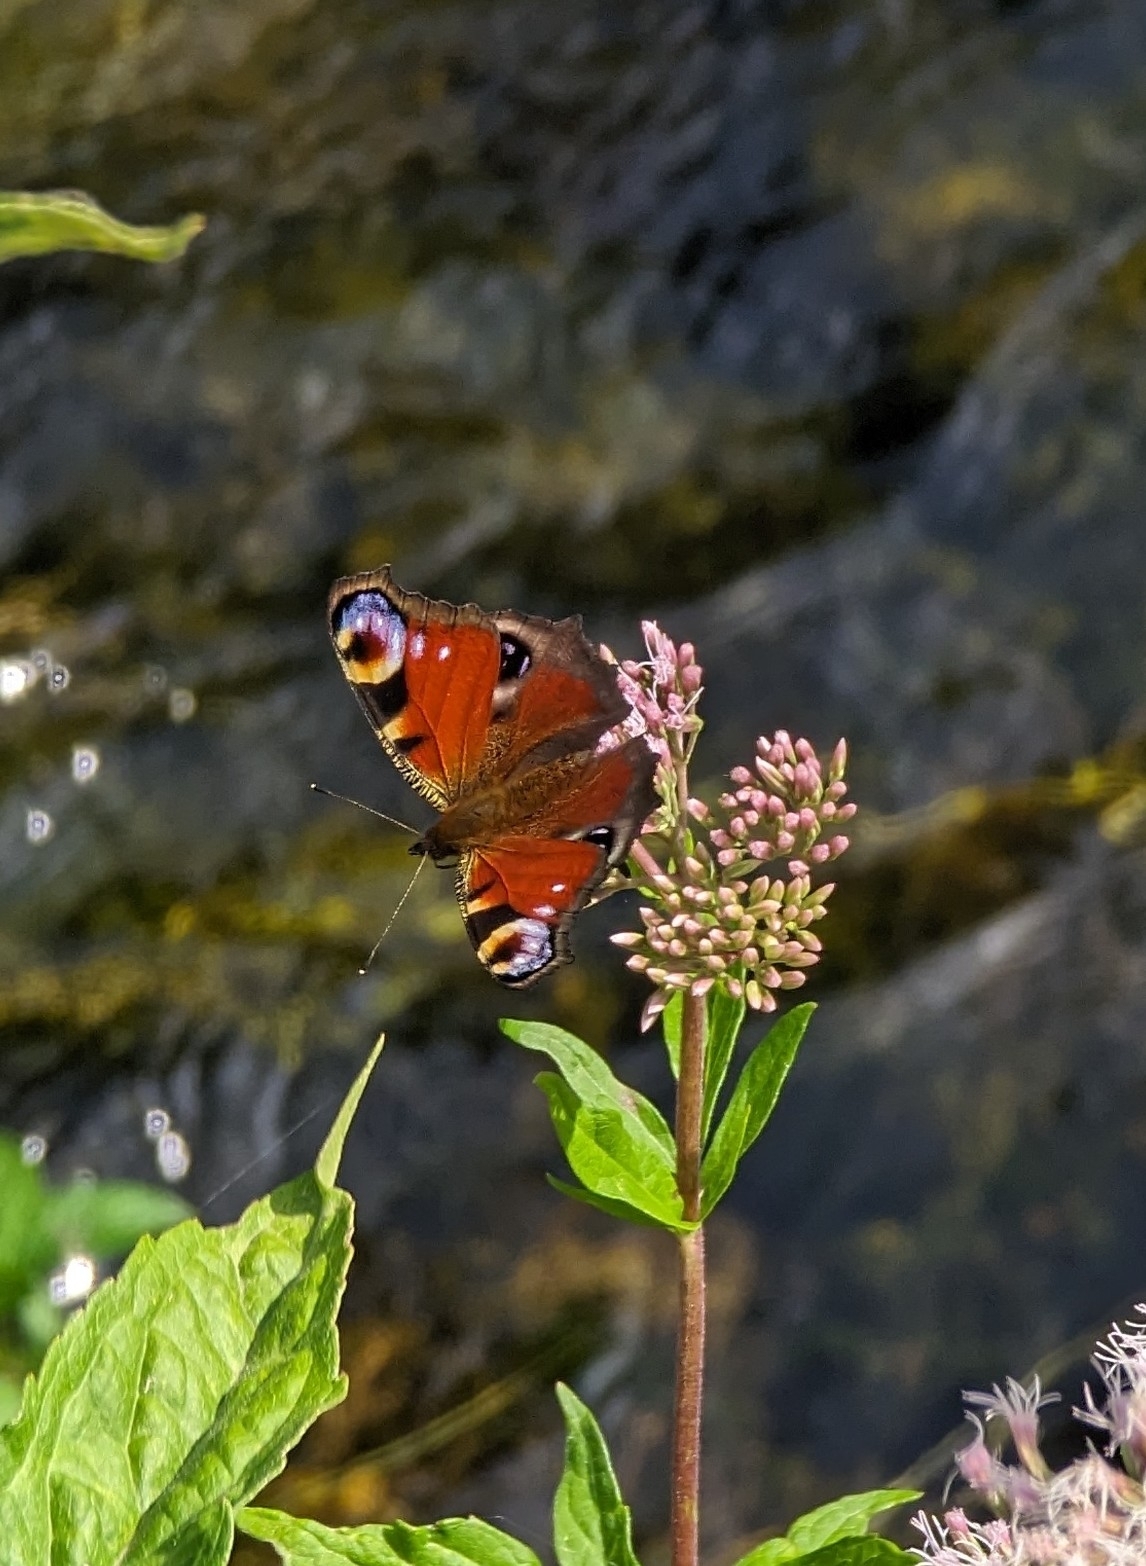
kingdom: Animalia
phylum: Arthropoda
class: Insecta
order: Lepidoptera
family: Nymphalidae
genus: Aglais
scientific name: Aglais io
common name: Peacock
